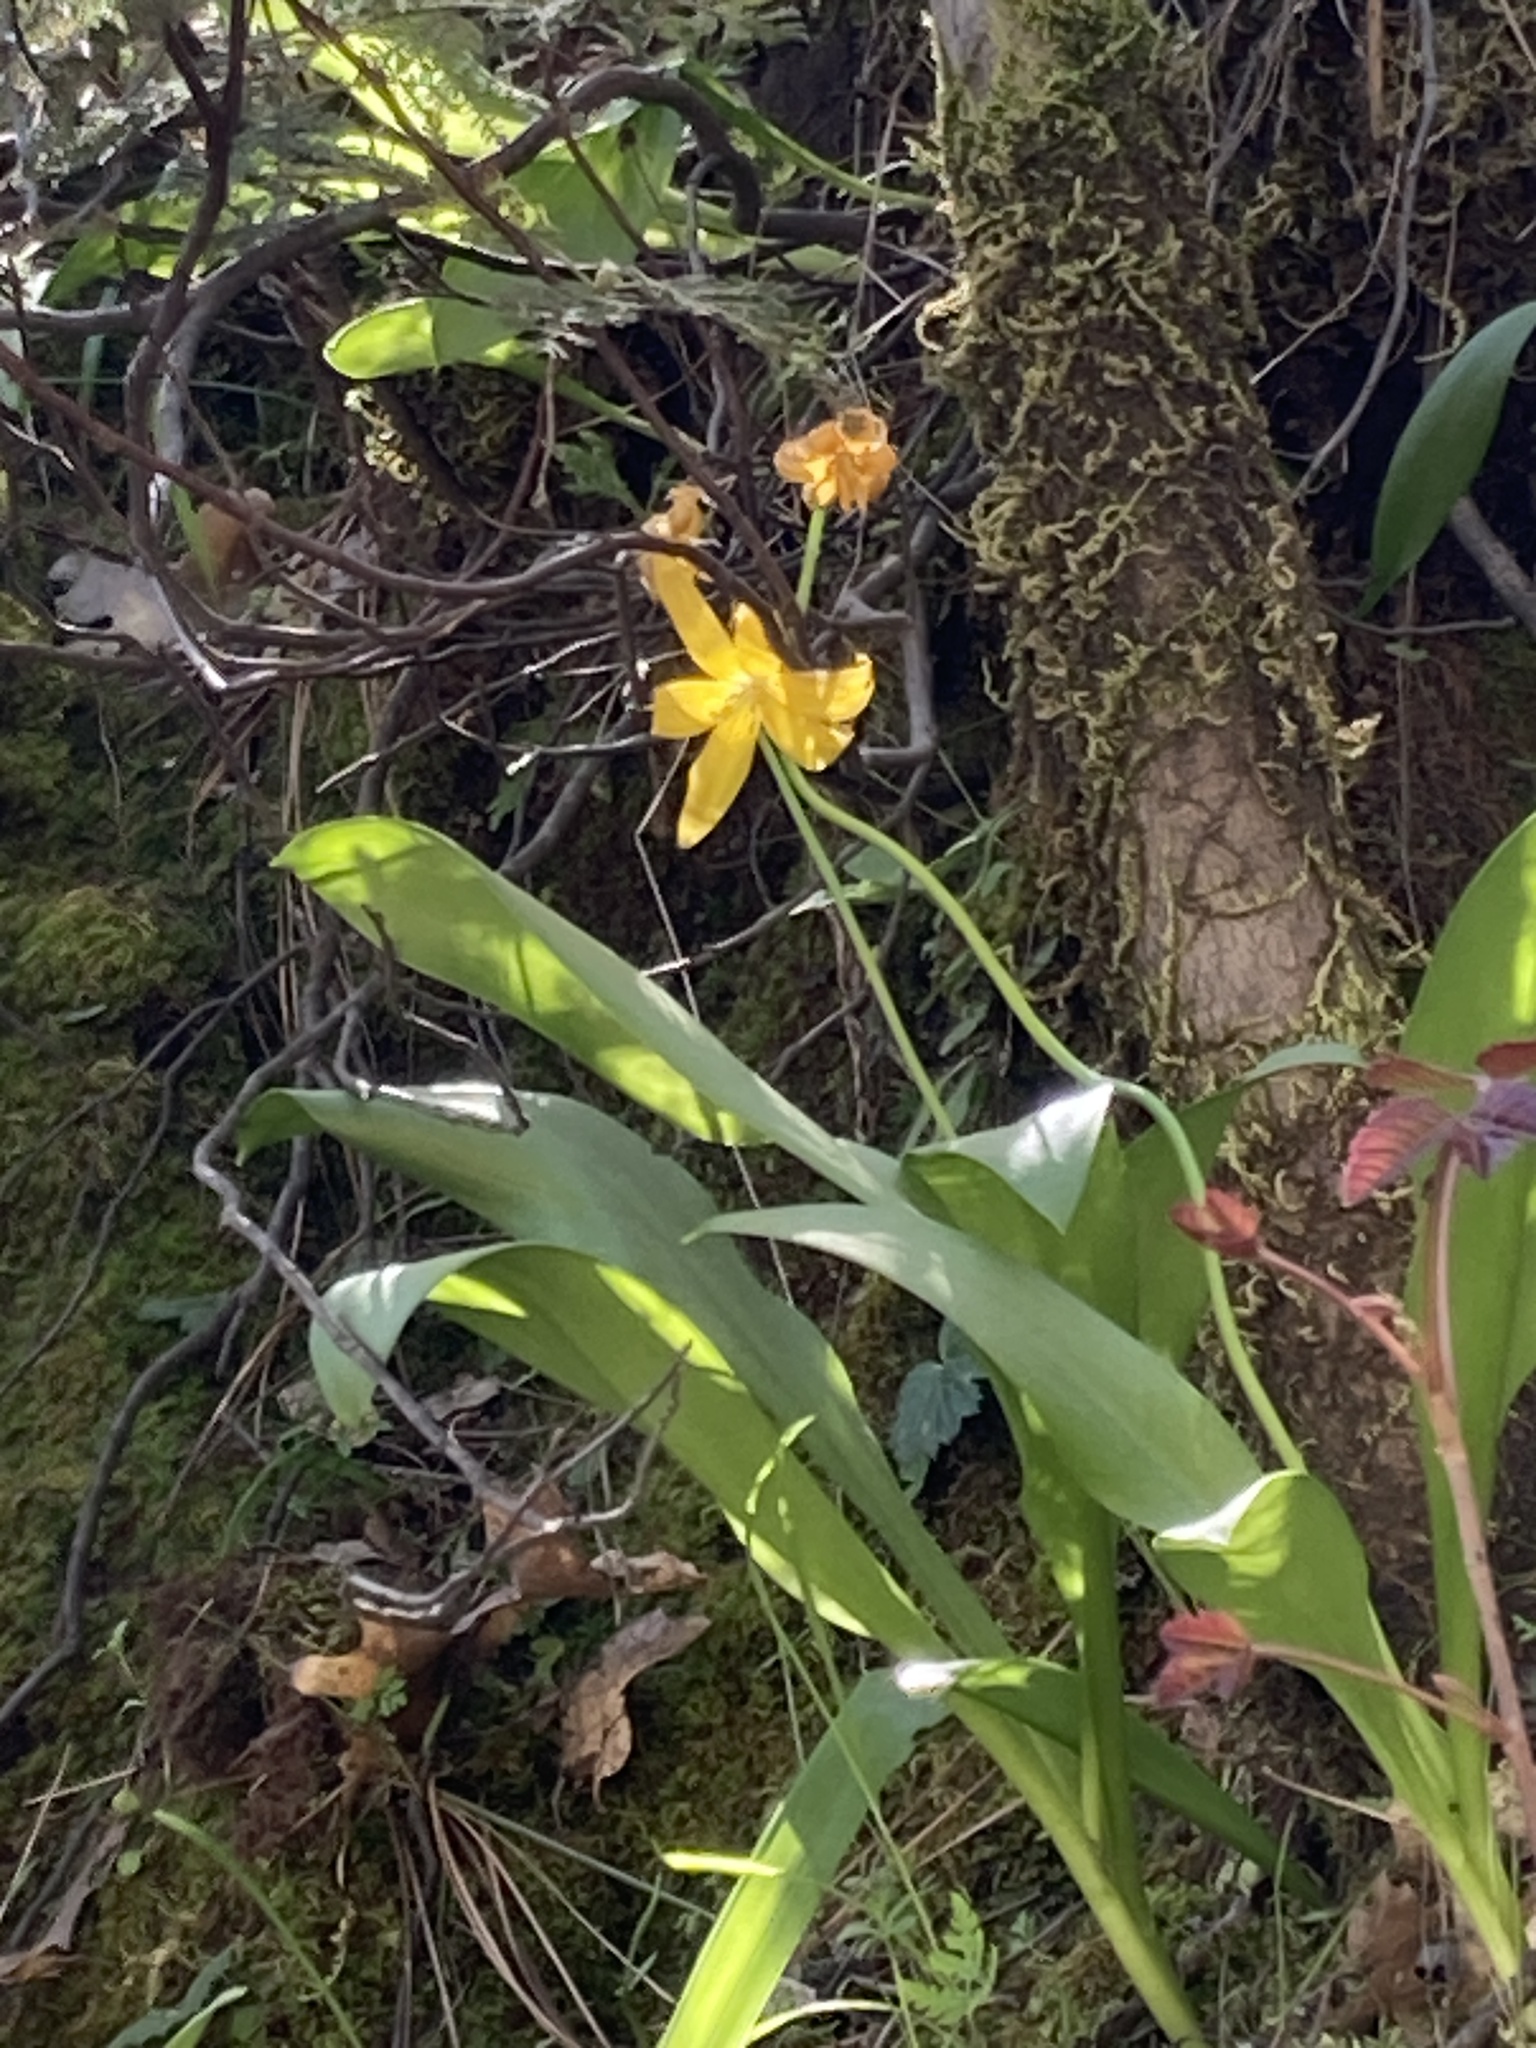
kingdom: Plantae
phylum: Tracheophyta
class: Liliopsida
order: Liliales
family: Liliaceae
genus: Erythronium
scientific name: Erythronium tuolumnense
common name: Tuolumne fawn-lily
